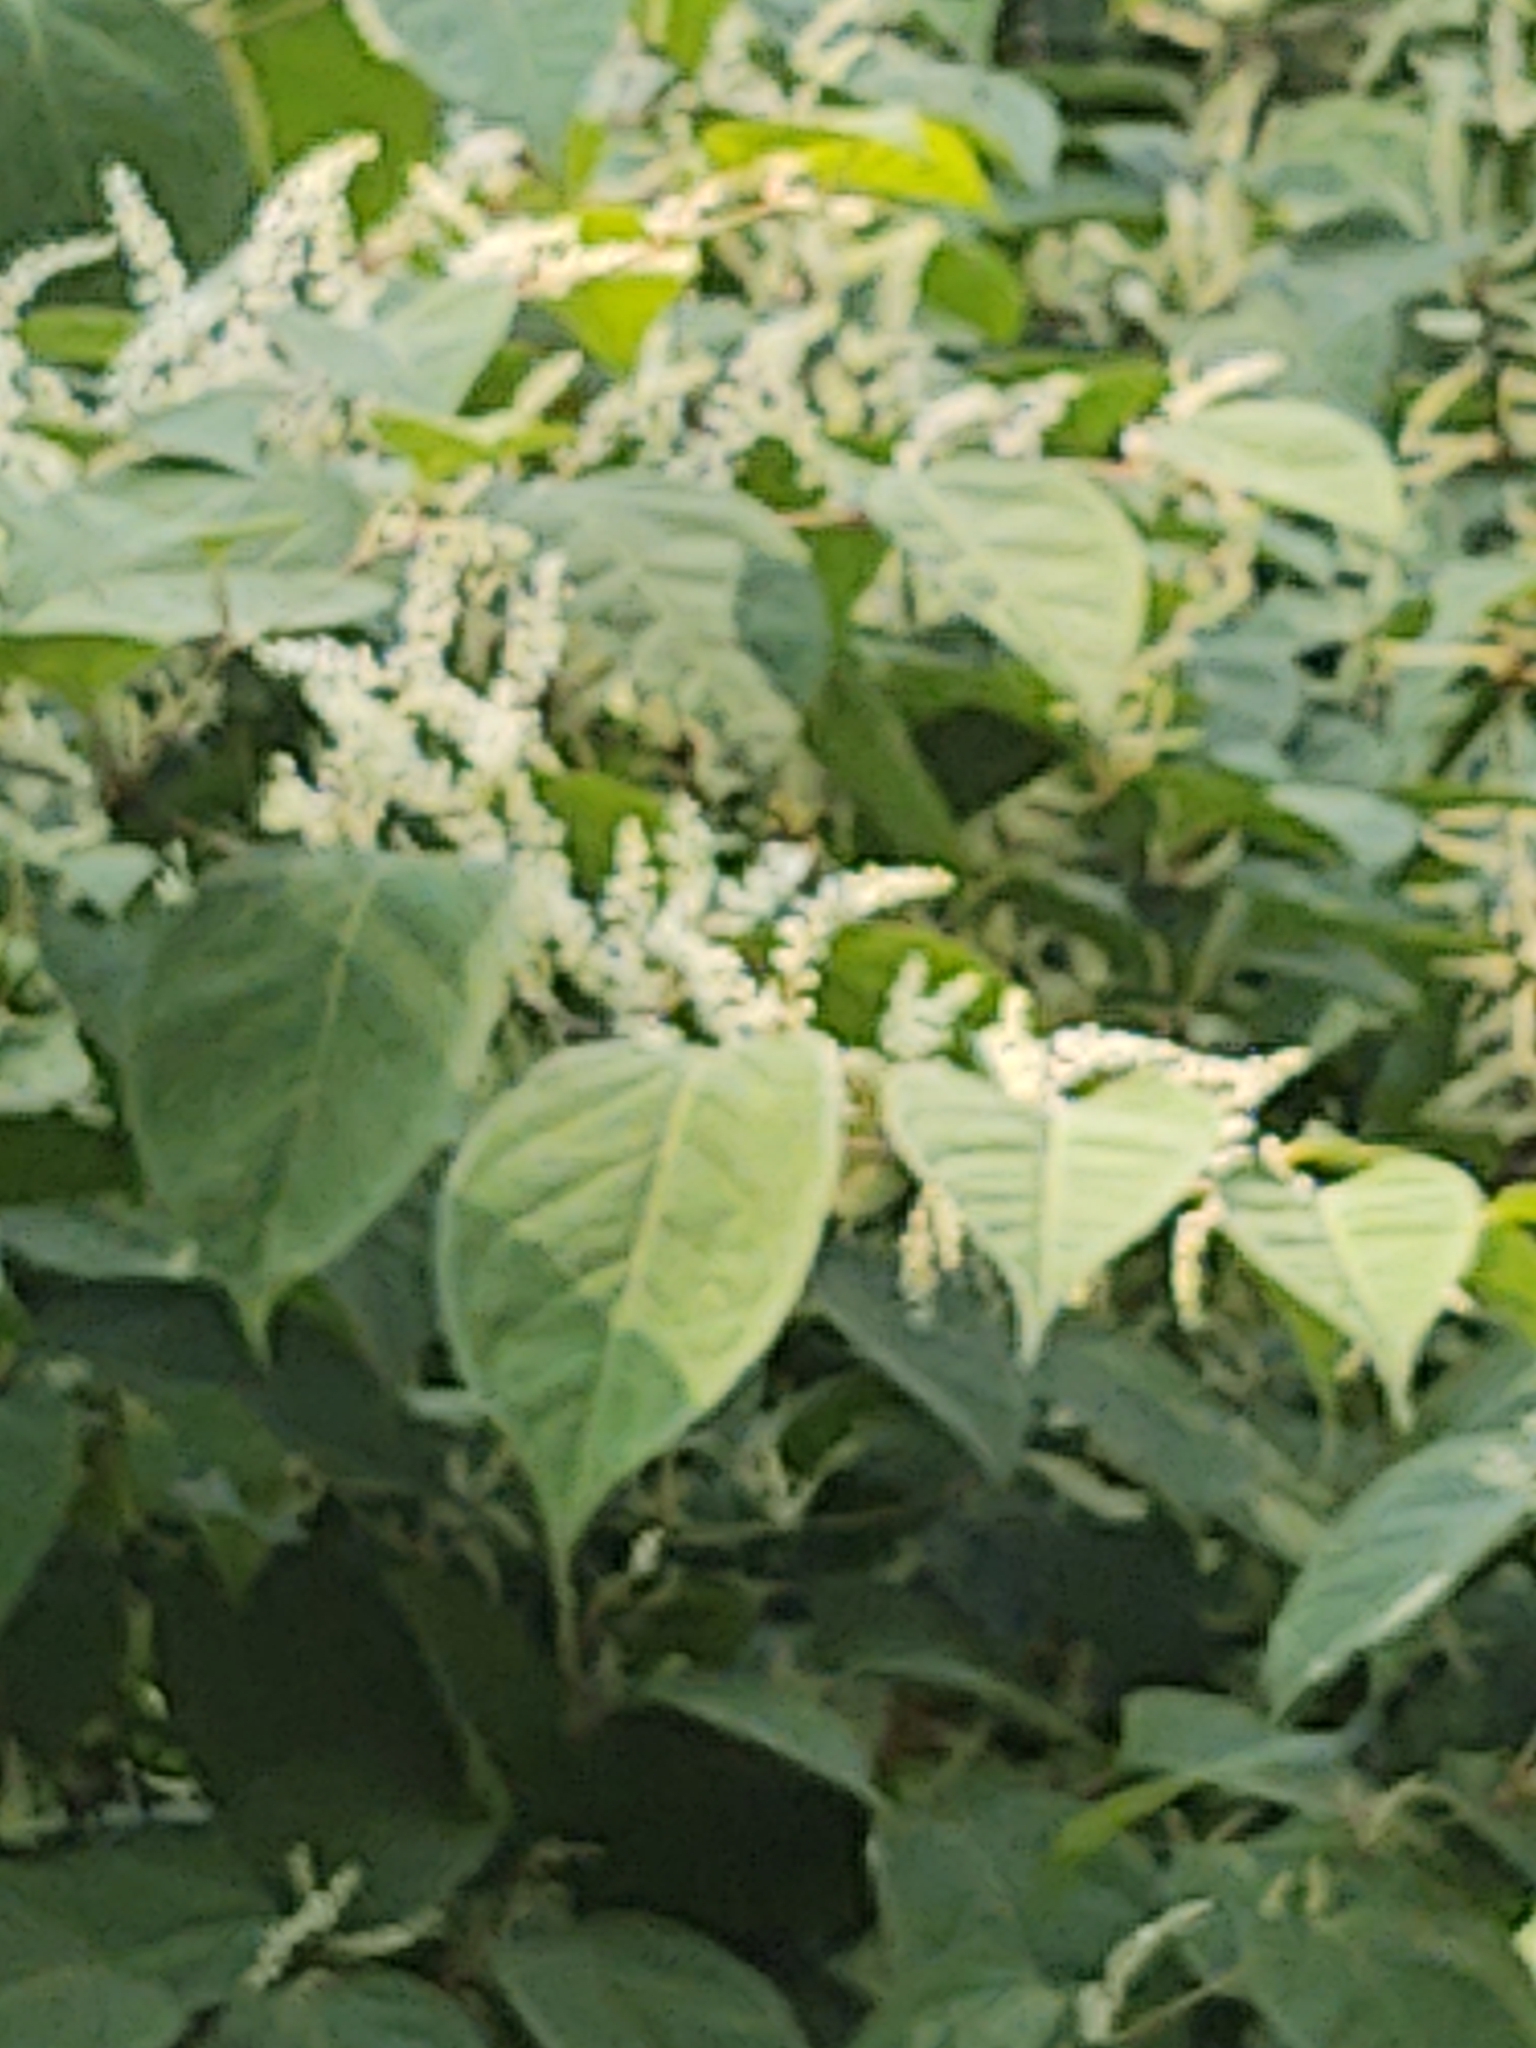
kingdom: Plantae
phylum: Tracheophyta
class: Magnoliopsida
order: Caryophyllales
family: Polygonaceae
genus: Reynoutria
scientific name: Reynoutria japonica
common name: Japanese knotweed
